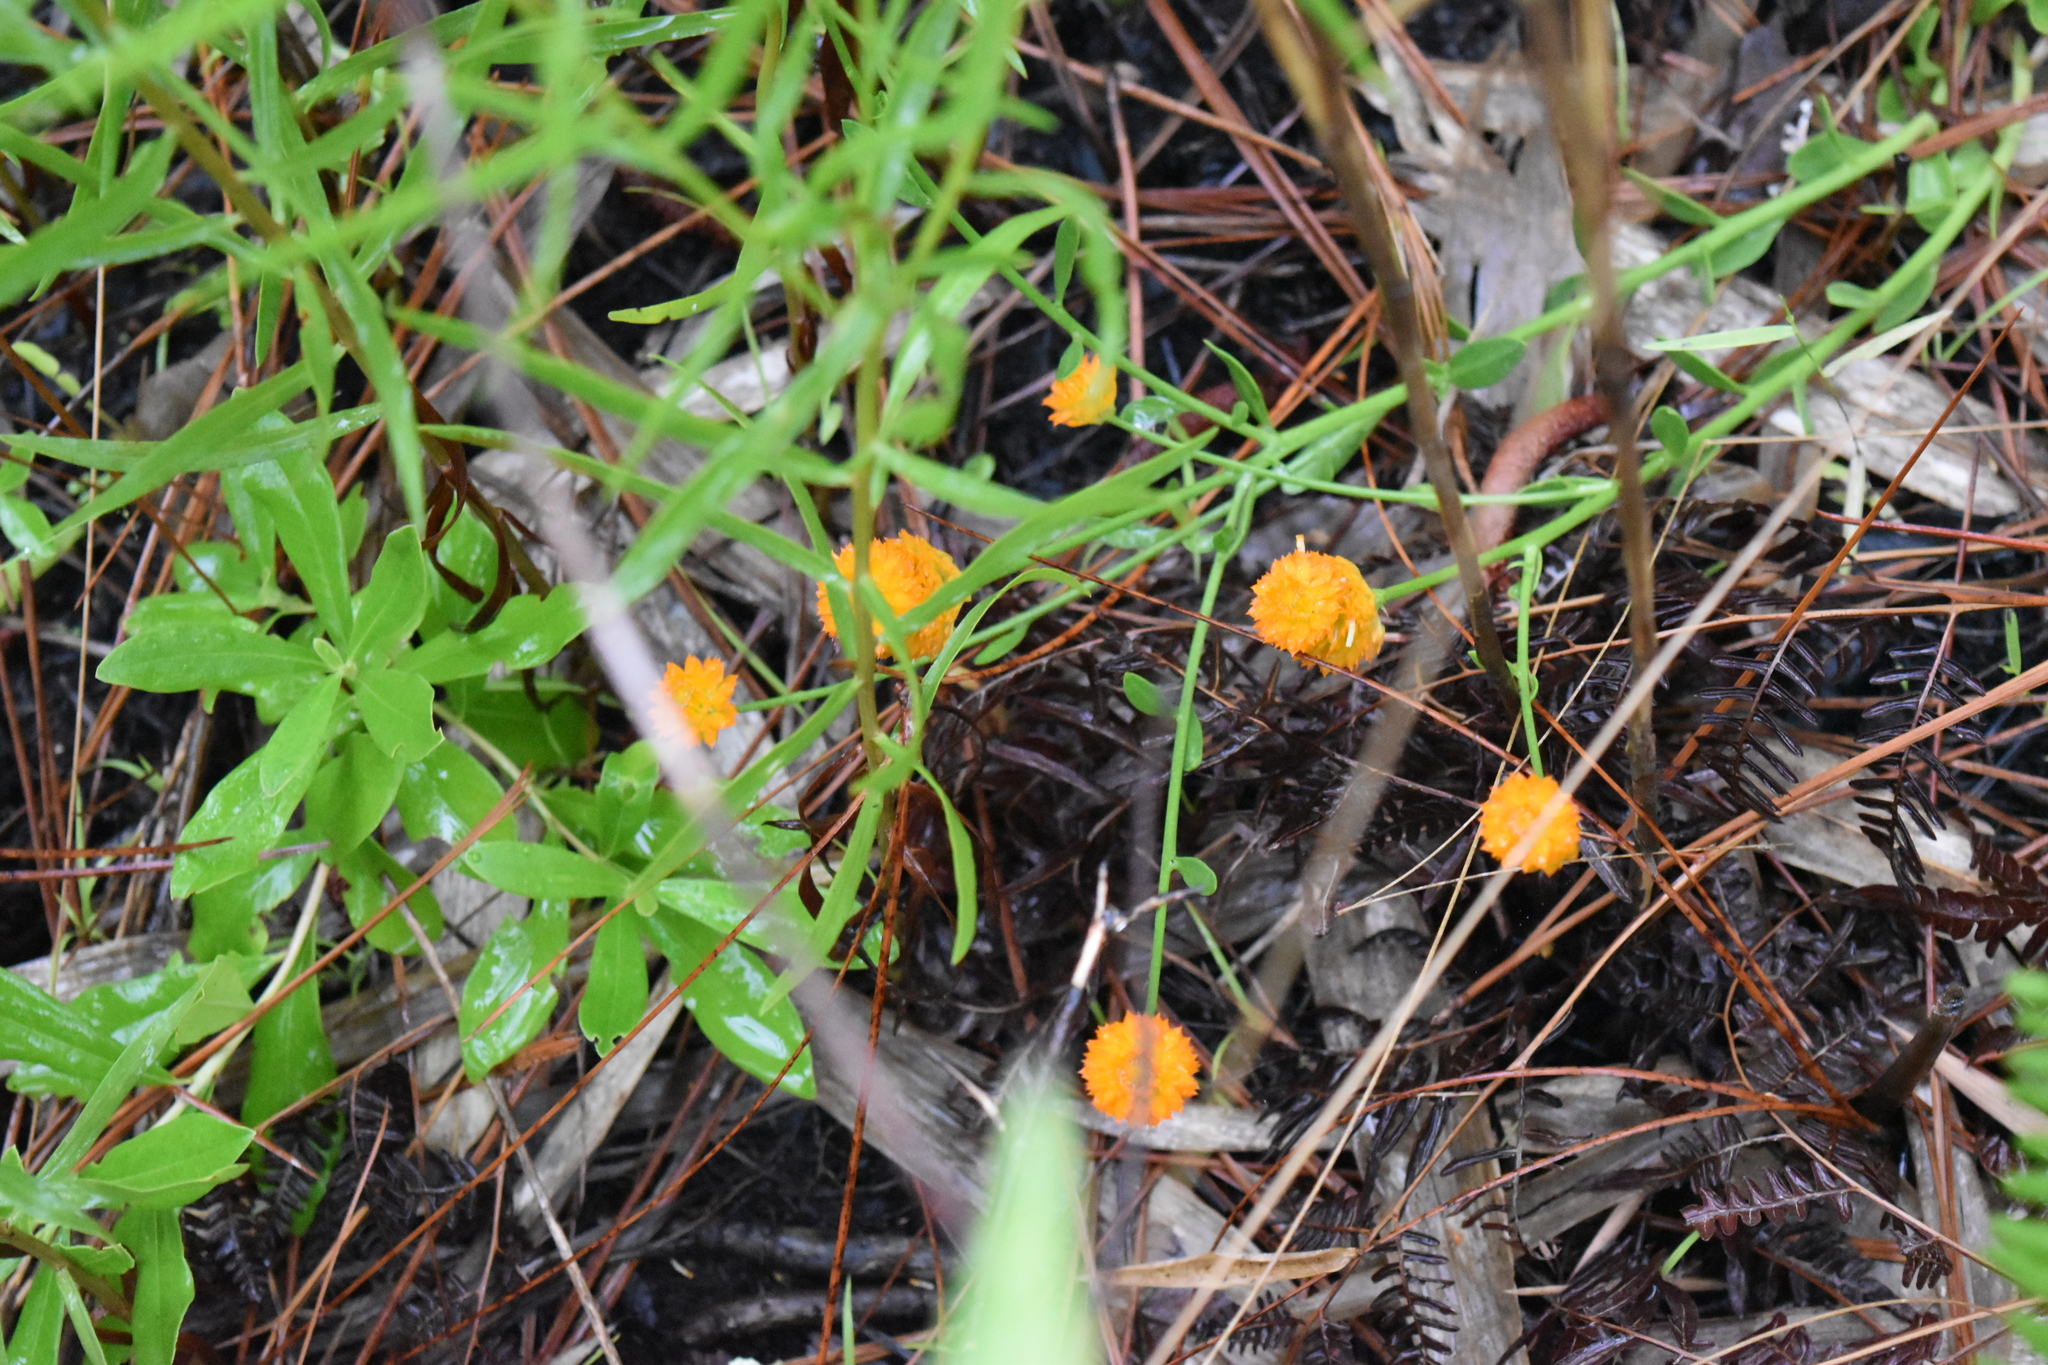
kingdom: Plantae
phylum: Tracheophyta
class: Magnoliopsida
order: Fabales
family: Polygalaceae
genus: Polygala
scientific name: Polygala lutea
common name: Orange milkwort
